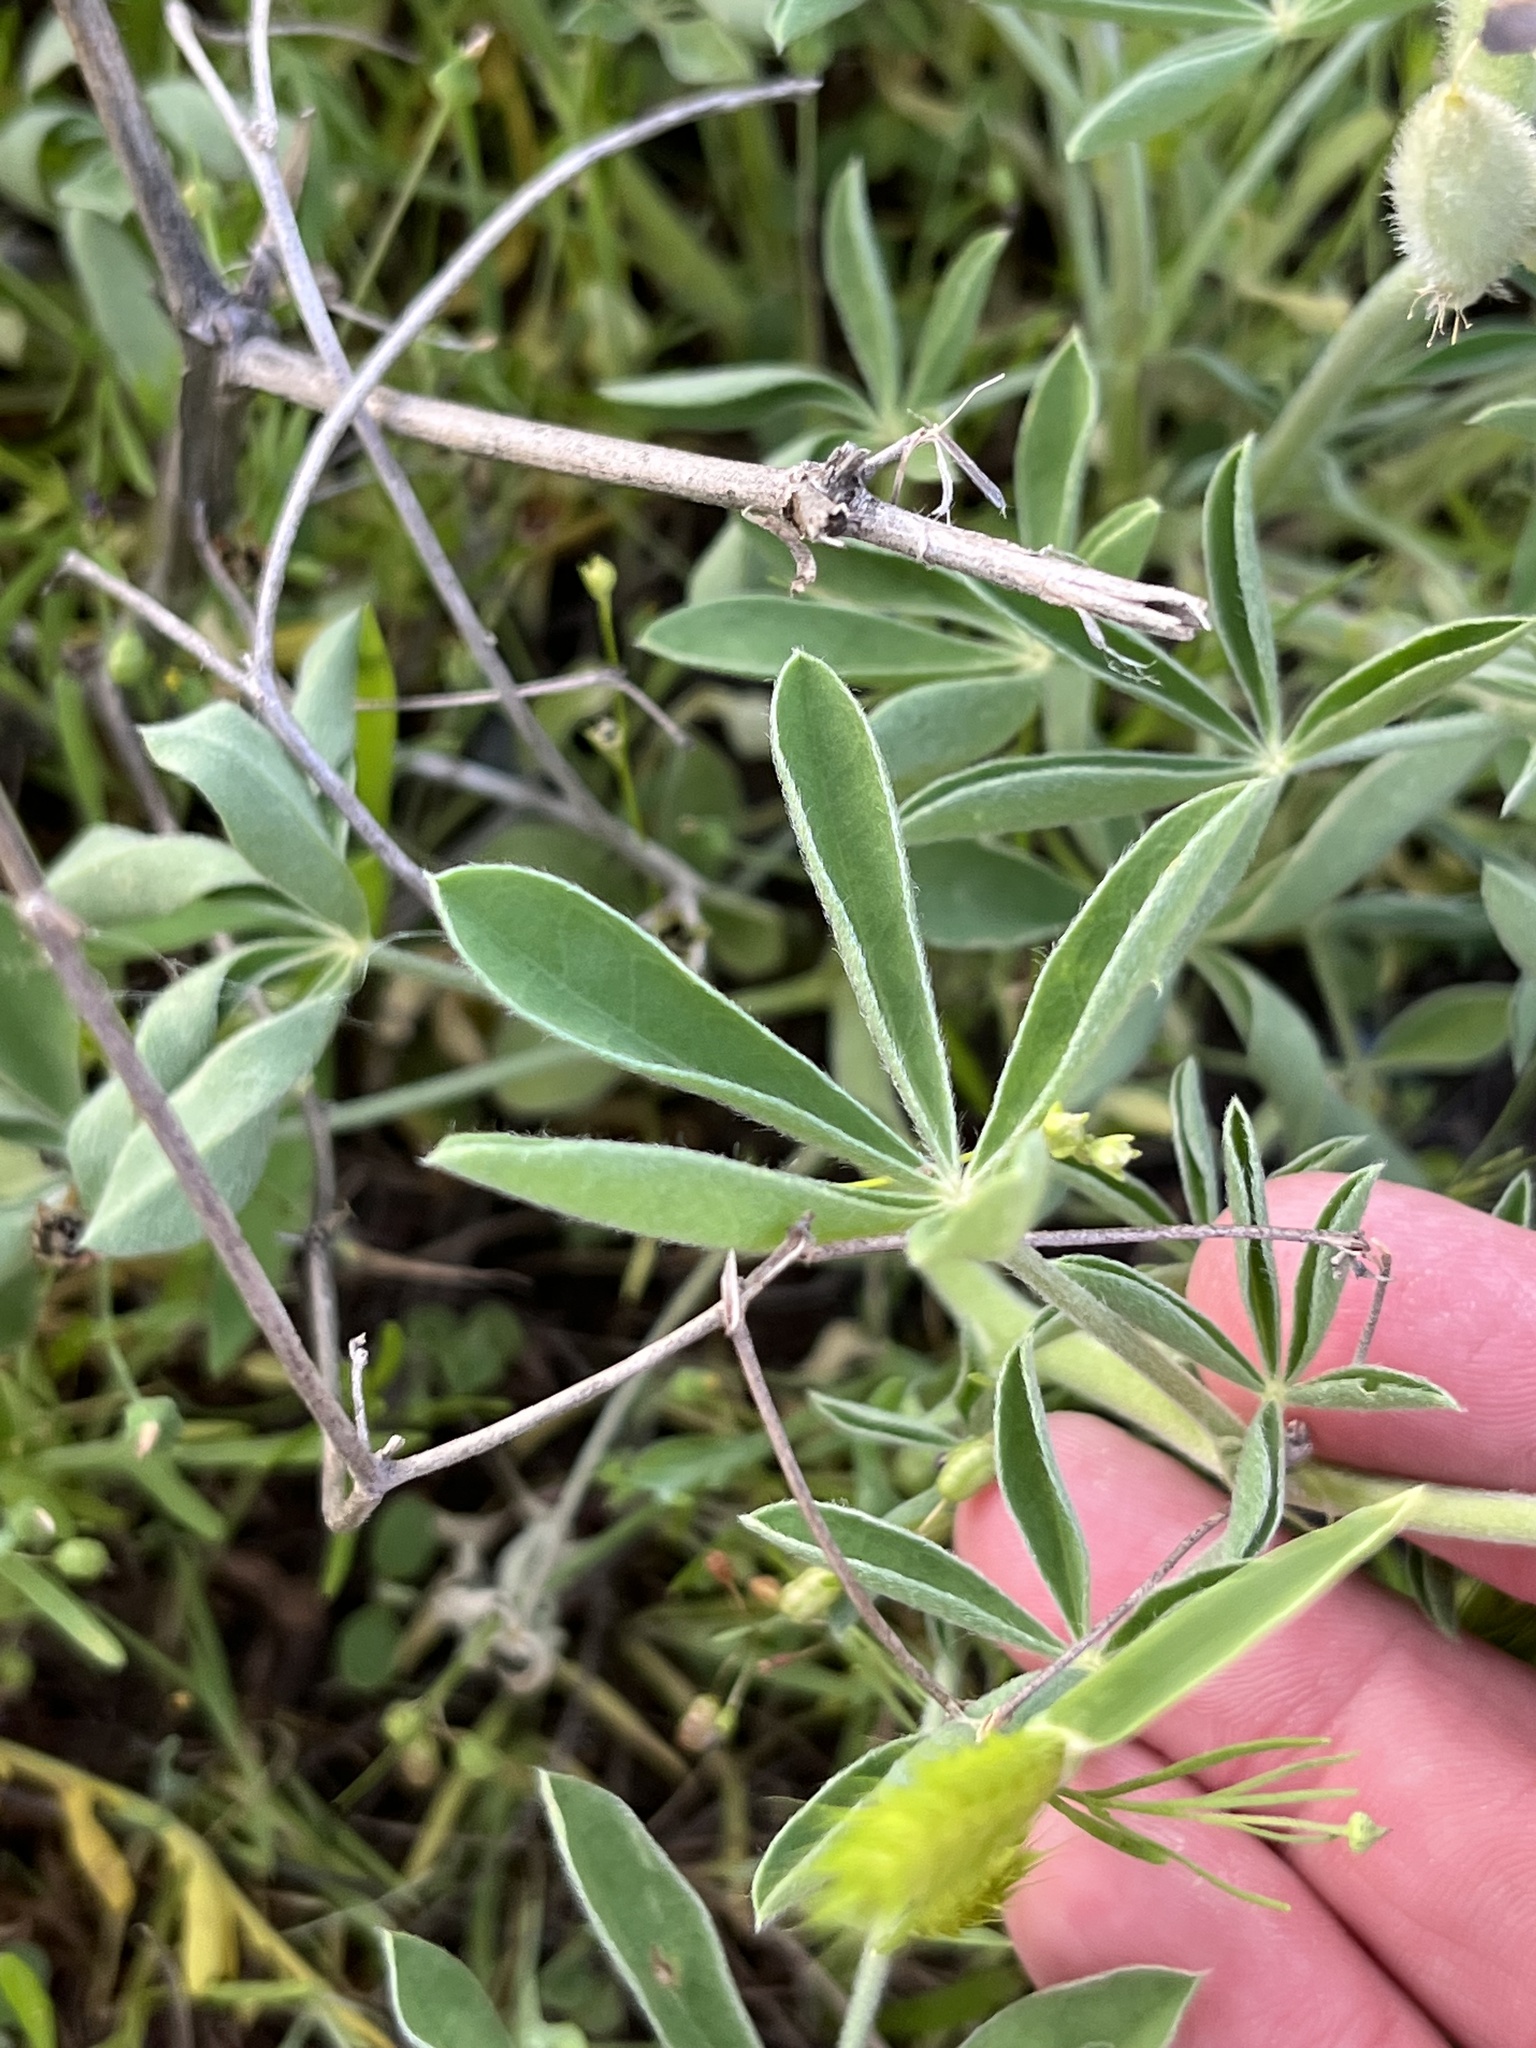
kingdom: Plantae
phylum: Tracheophyta
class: Magnoliopsida
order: Fabales
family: Fabaceae
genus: Lupinus
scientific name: Lupinus texensis
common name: Texas bluebonnet
